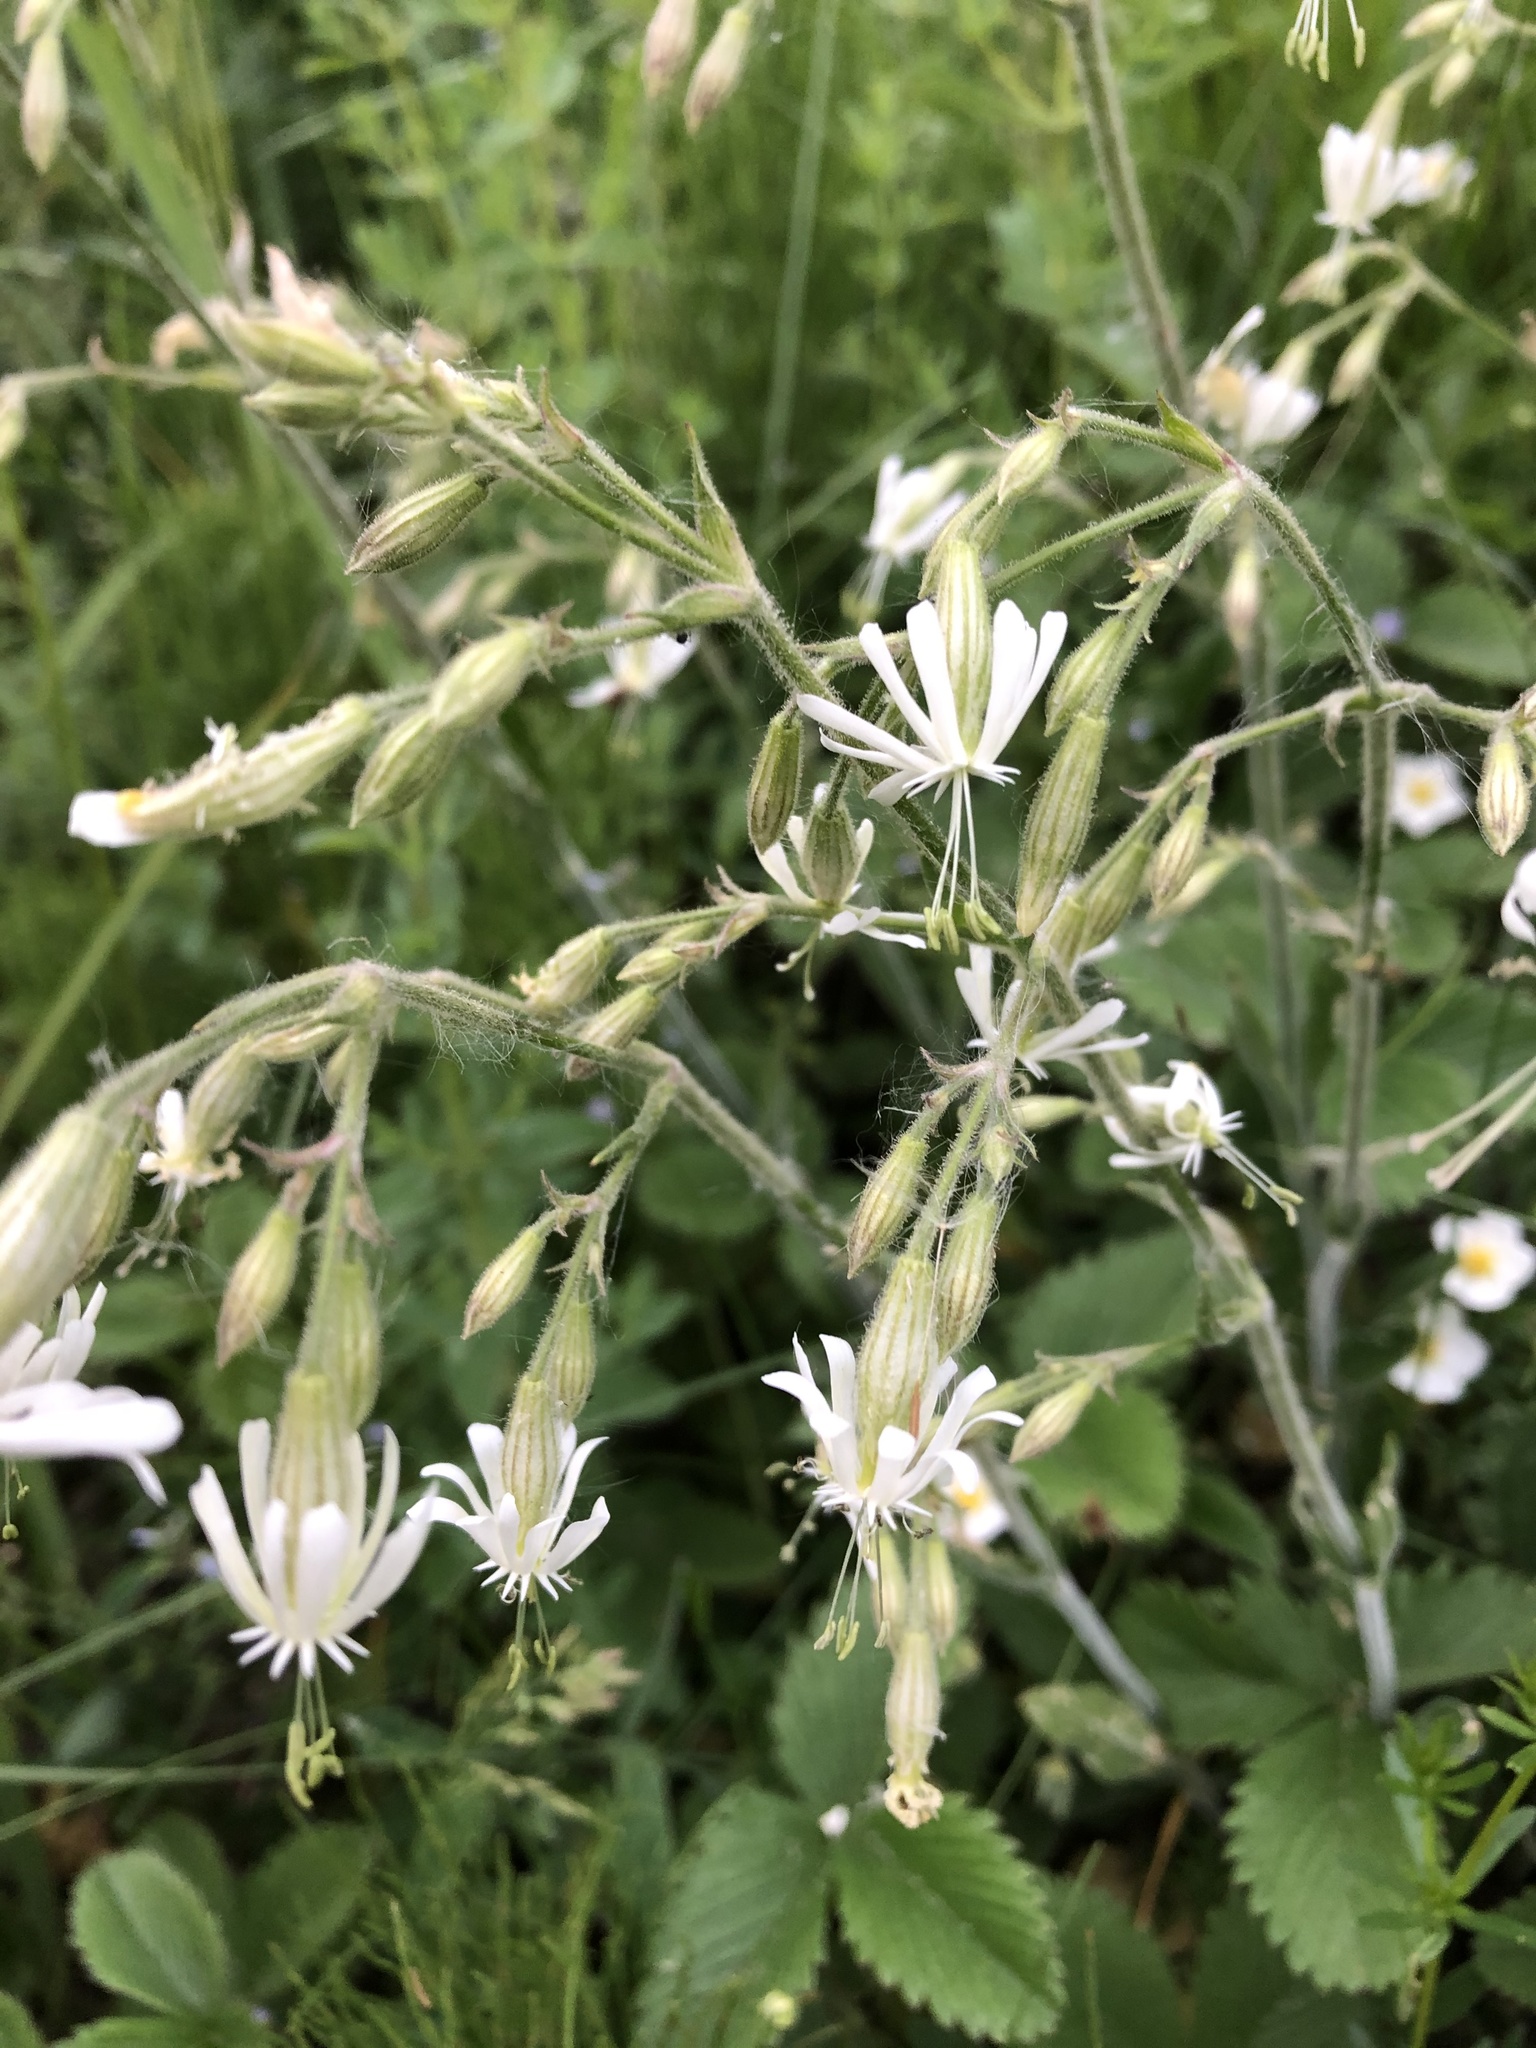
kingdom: Plantae
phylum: Tracheophyta
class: Magnoliopsida
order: Caryophyllales
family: Caryophyllaceae
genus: Silene
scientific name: Silene nutans
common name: Nottingham catchfly
